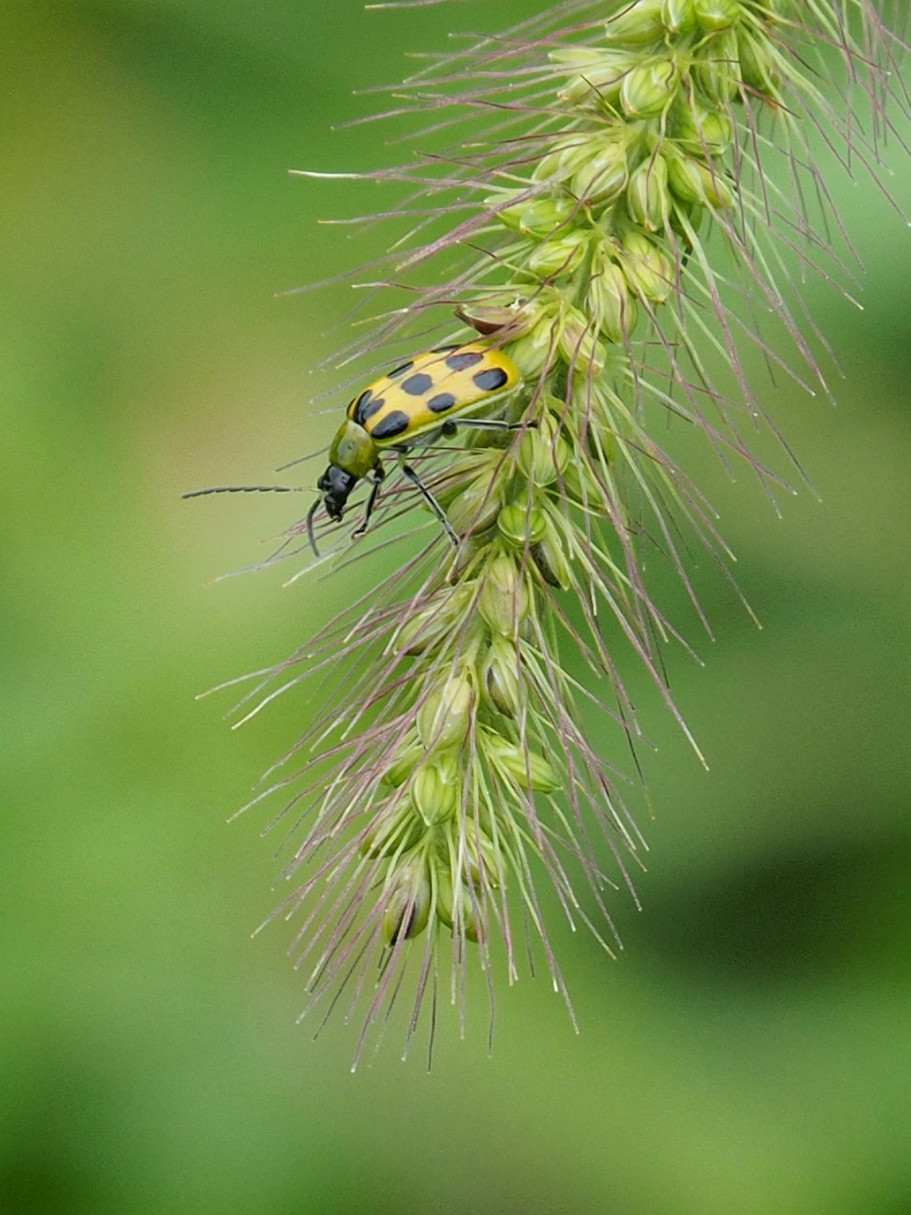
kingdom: Animalia
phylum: Arthropoda
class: Insecta
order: Coleoptera
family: Chrysomelidae
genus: Diabrotica
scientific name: Diabrotica undecimpunctata
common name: Spotted cucumber beetle
